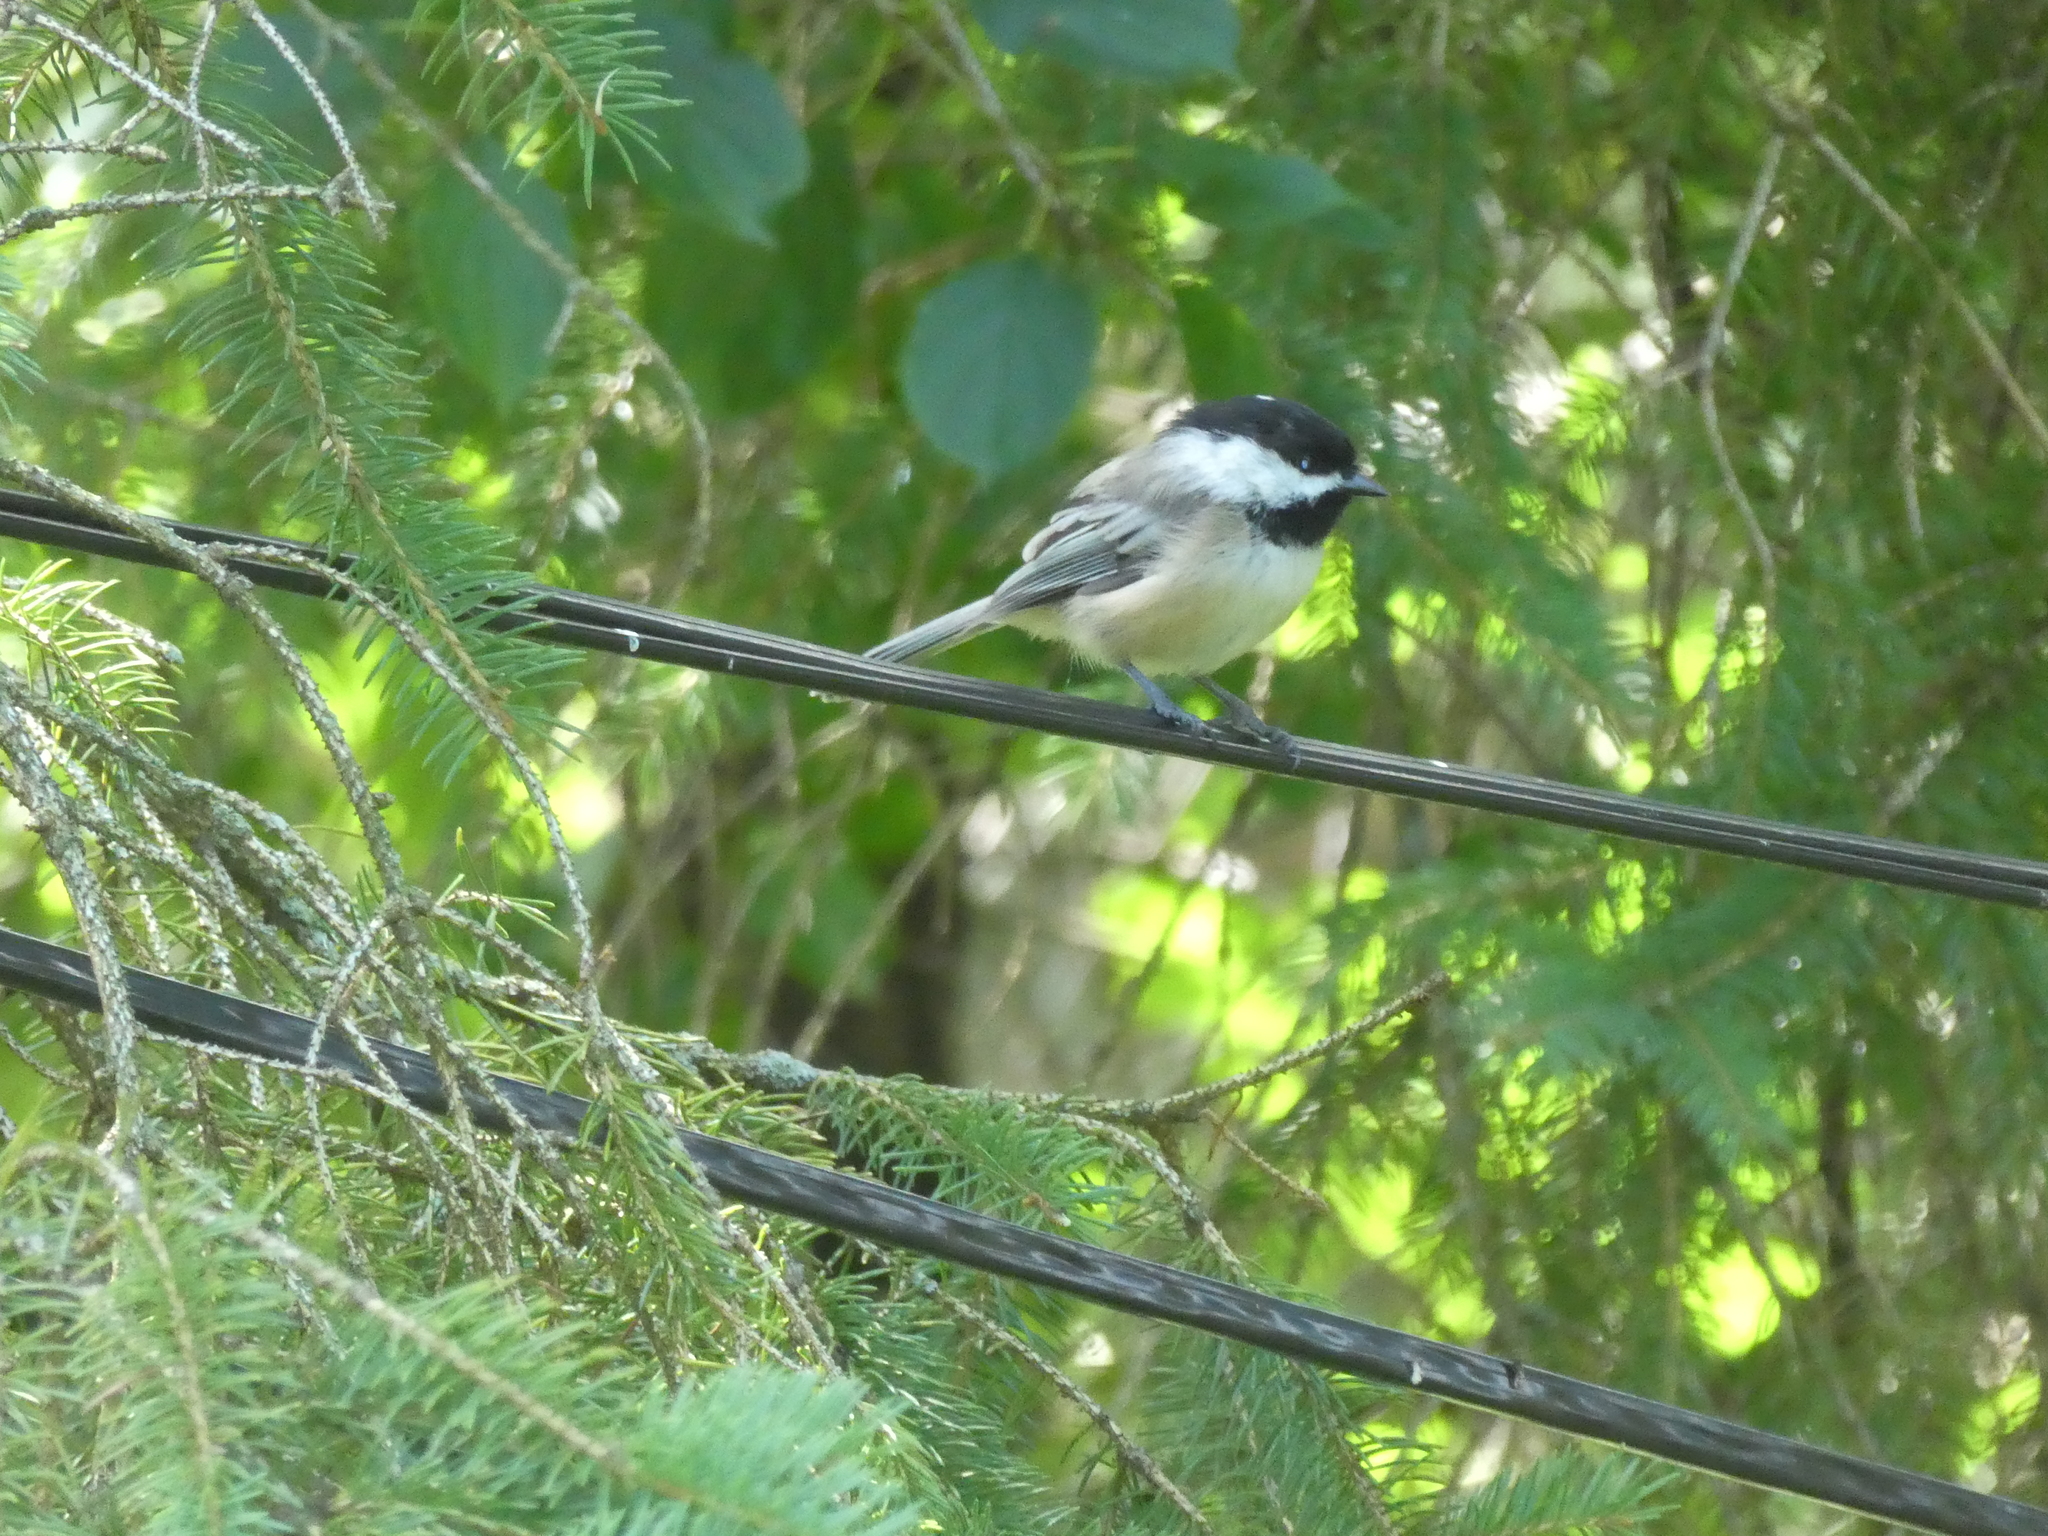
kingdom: Animalia
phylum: Chordata
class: Aves
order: Passeriformes
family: Paridae
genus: Poecile
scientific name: Poecile atricapillus
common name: Black-capped chickadee
